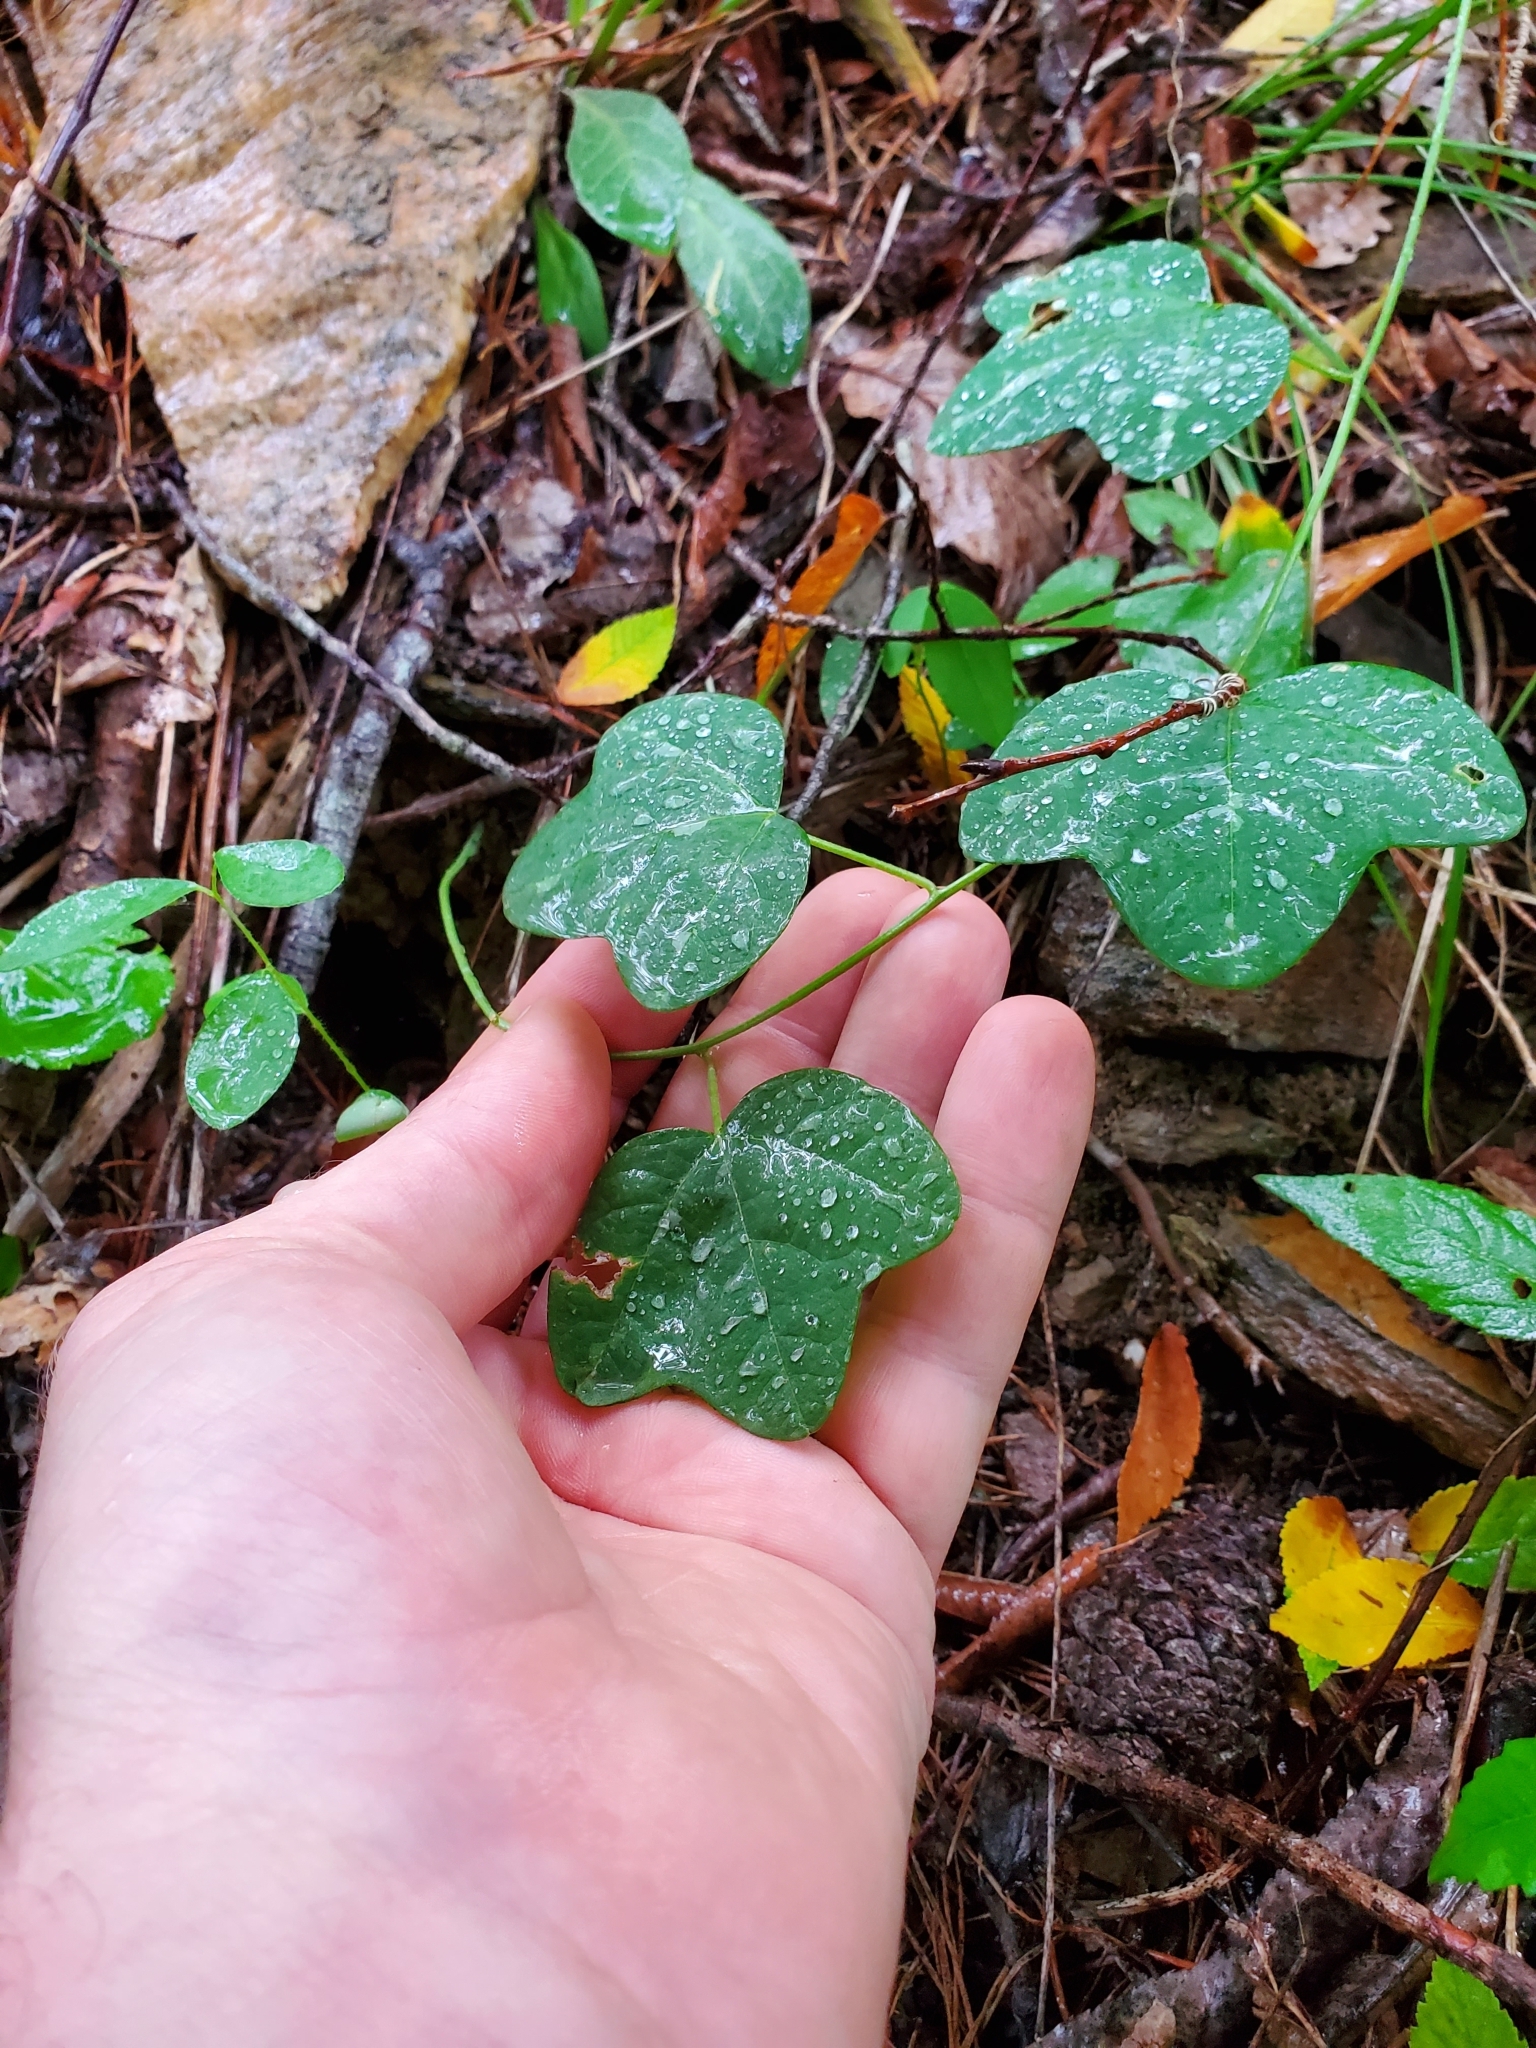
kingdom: Plantae
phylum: Tracheophyta
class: Magnoliopsida
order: Malpighiales
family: Passifloraceae
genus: Passiflora
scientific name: Passiflora lutea
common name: Yellow passionflower
